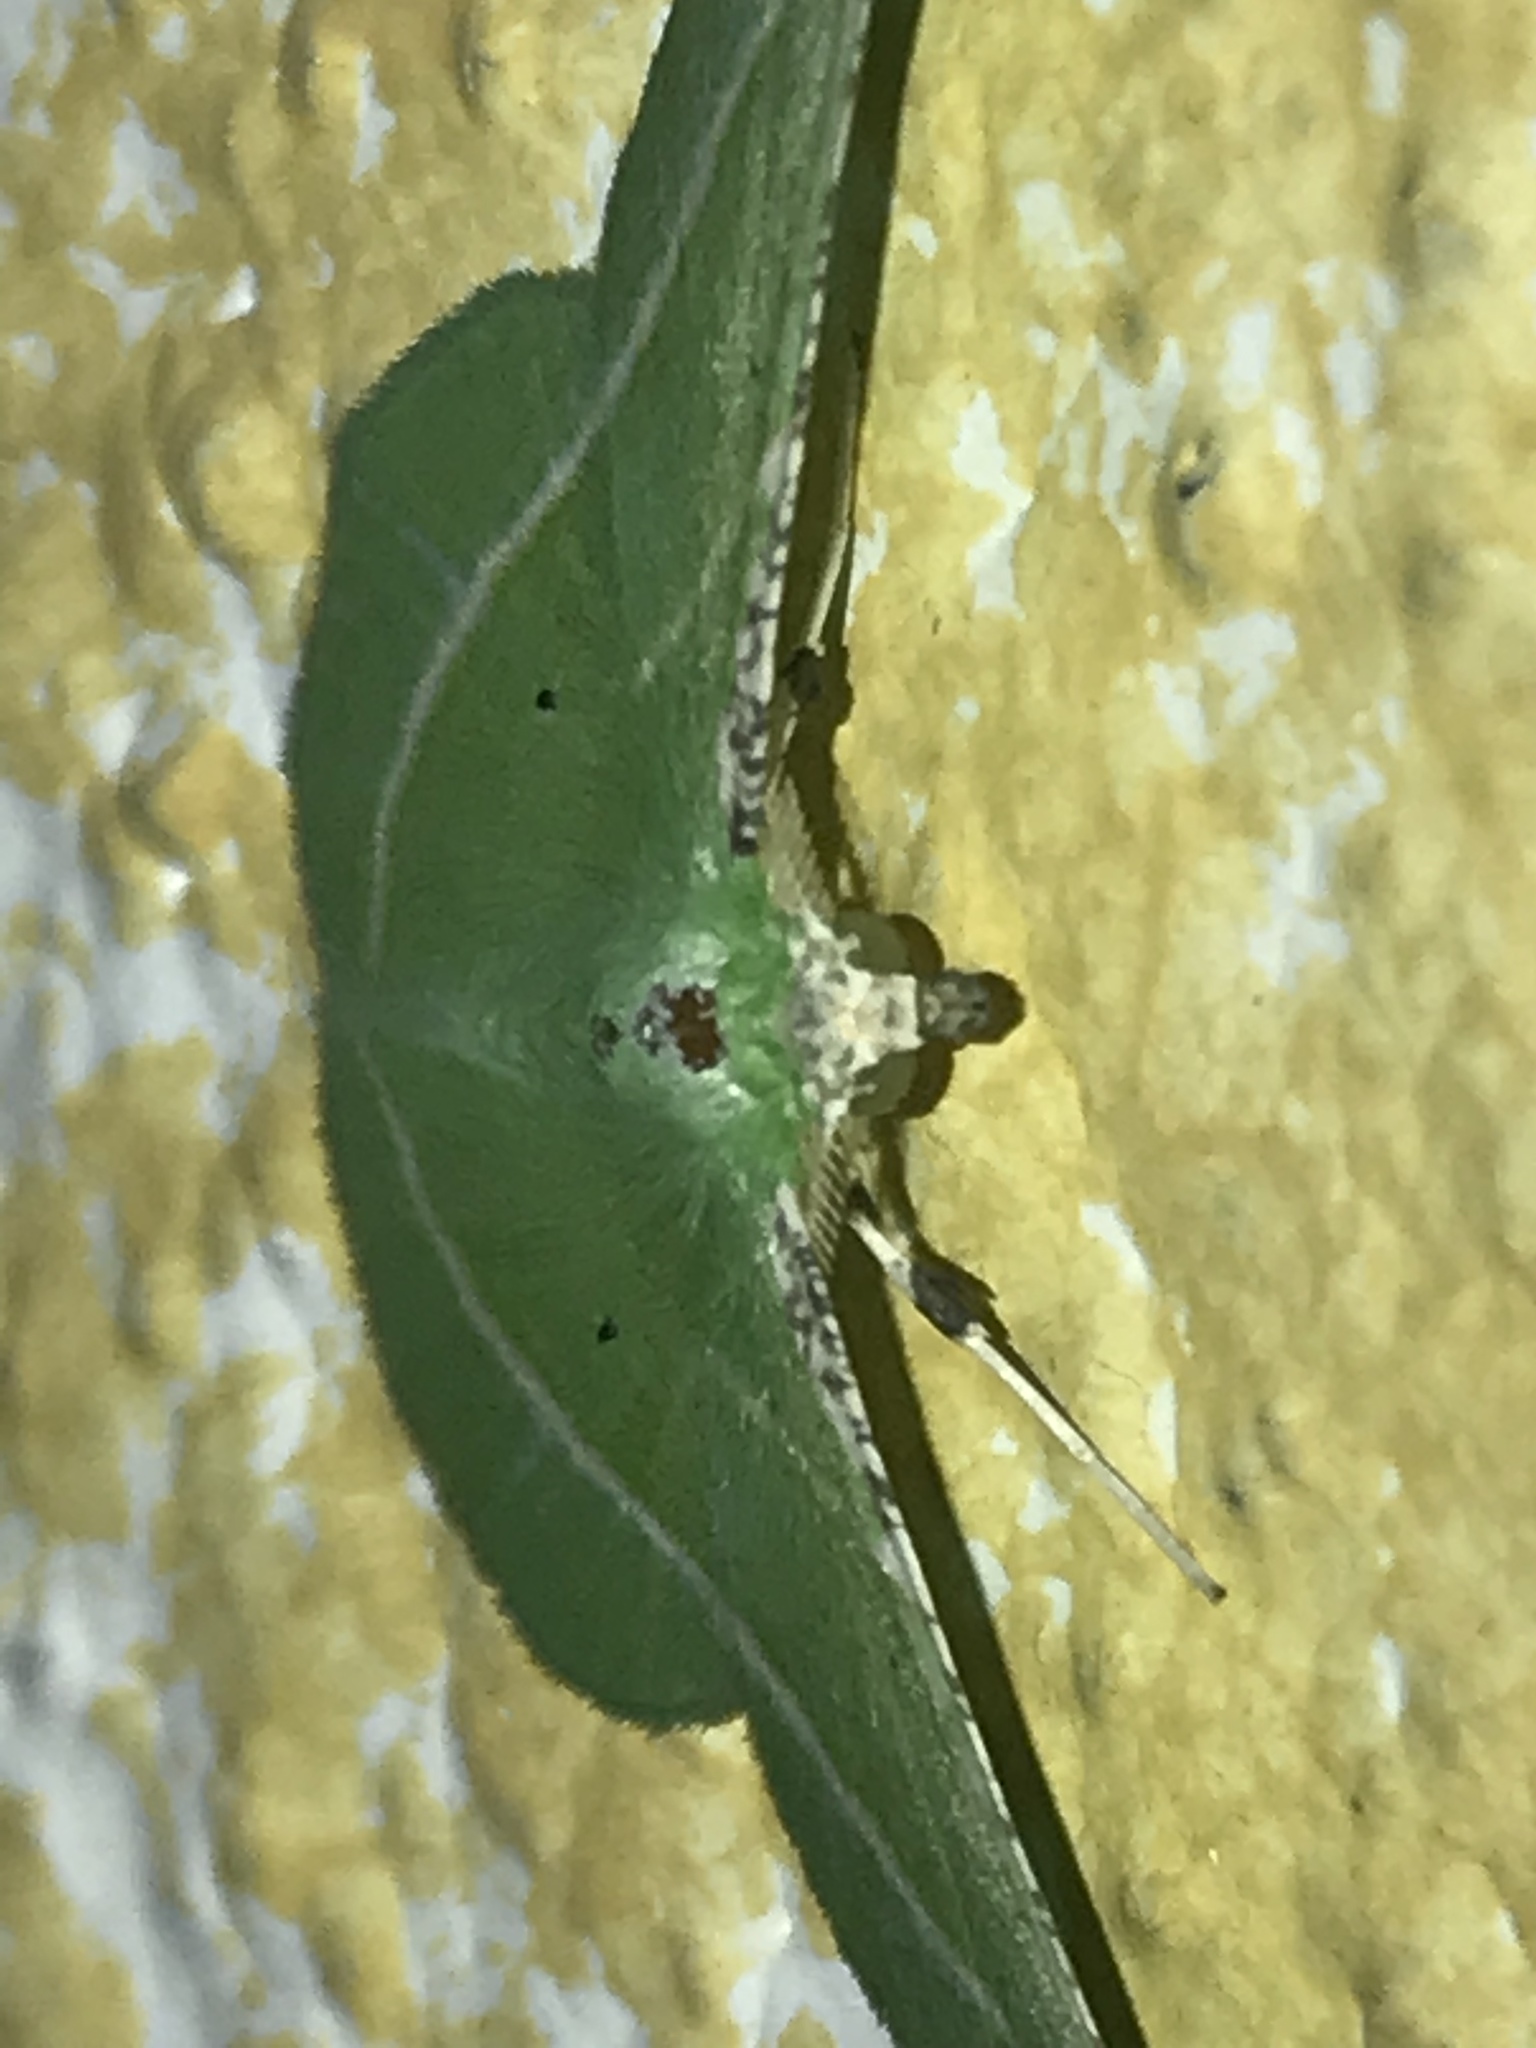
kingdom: Animalia
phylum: Arthropoda
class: Insecta
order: Lepidoptera
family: Geometridae
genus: Dichorda
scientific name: Dichorda rectaria
